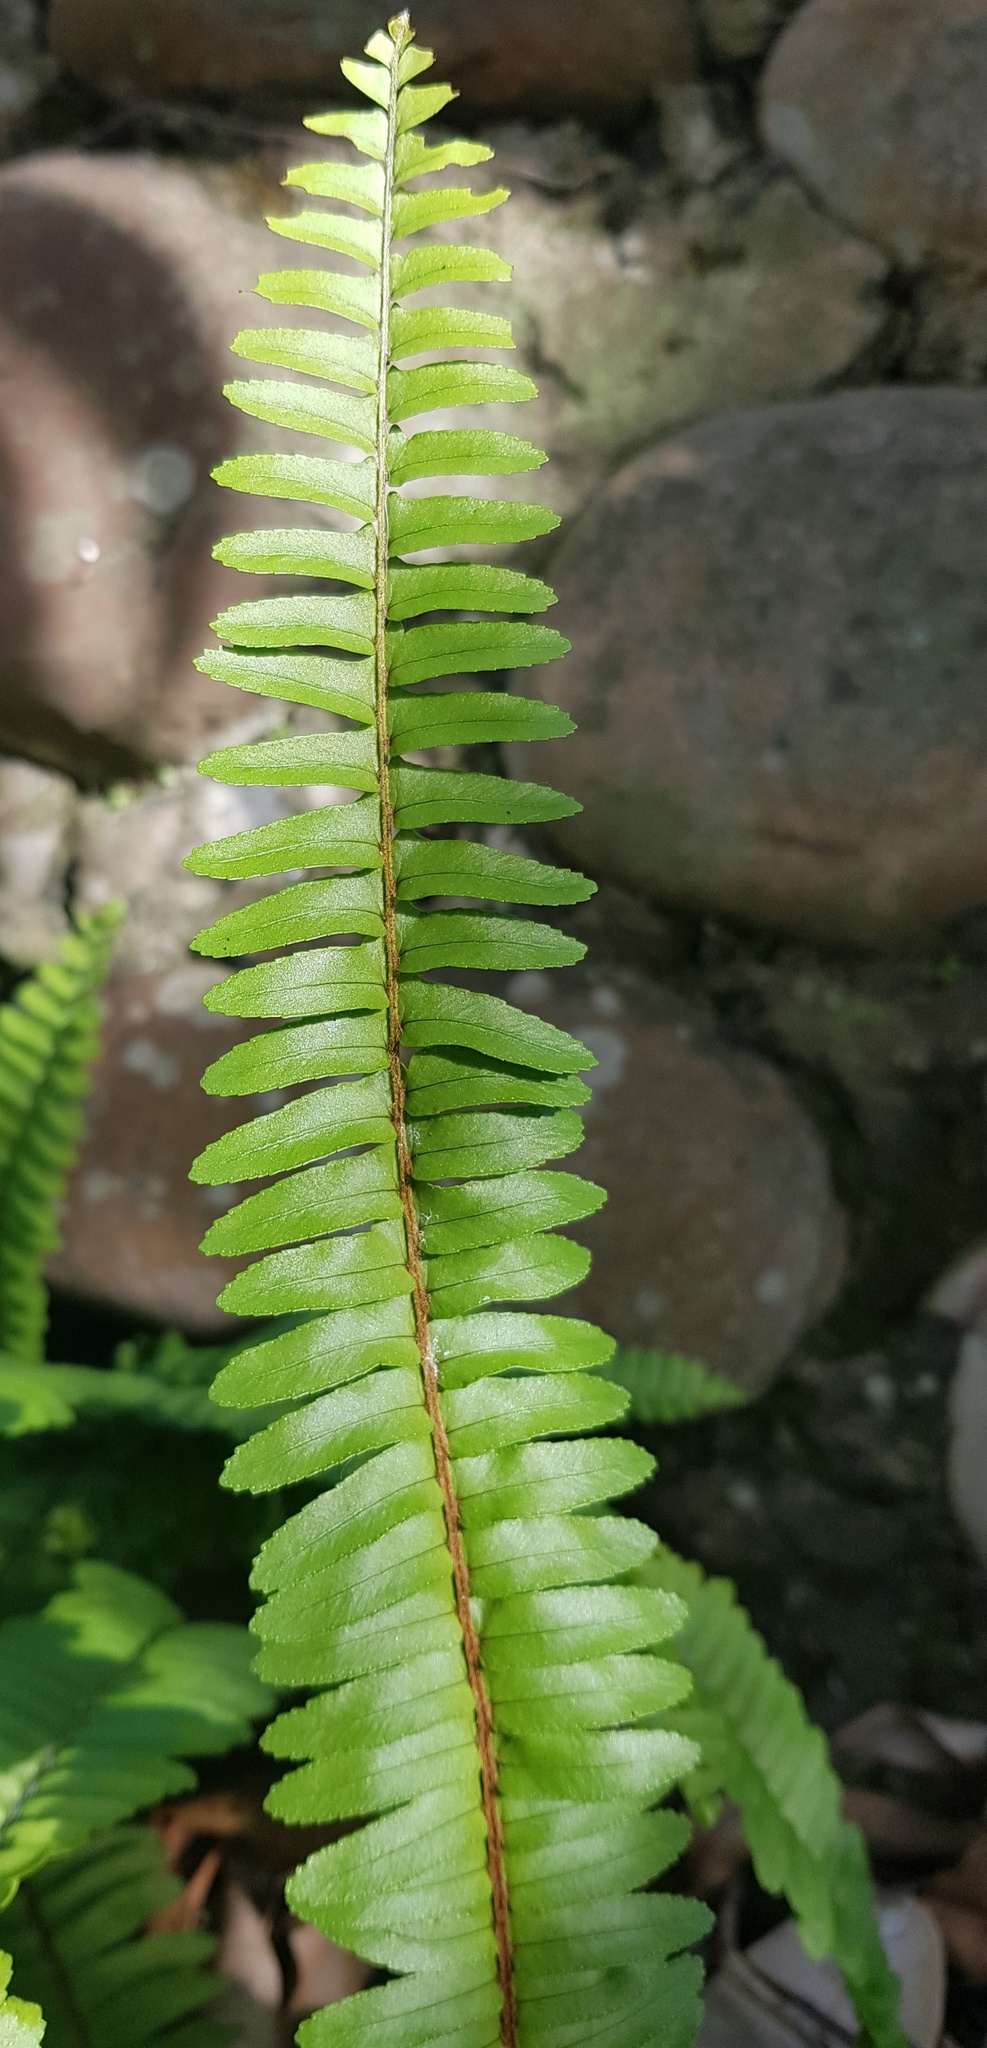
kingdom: Plantae
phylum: Tracheophyta
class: Polypodiopsida
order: Polypodiales
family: Nephrolepidaceae
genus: Nephrolepis
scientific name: Nephrolepis cordifolia
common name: Narrow swordfern
